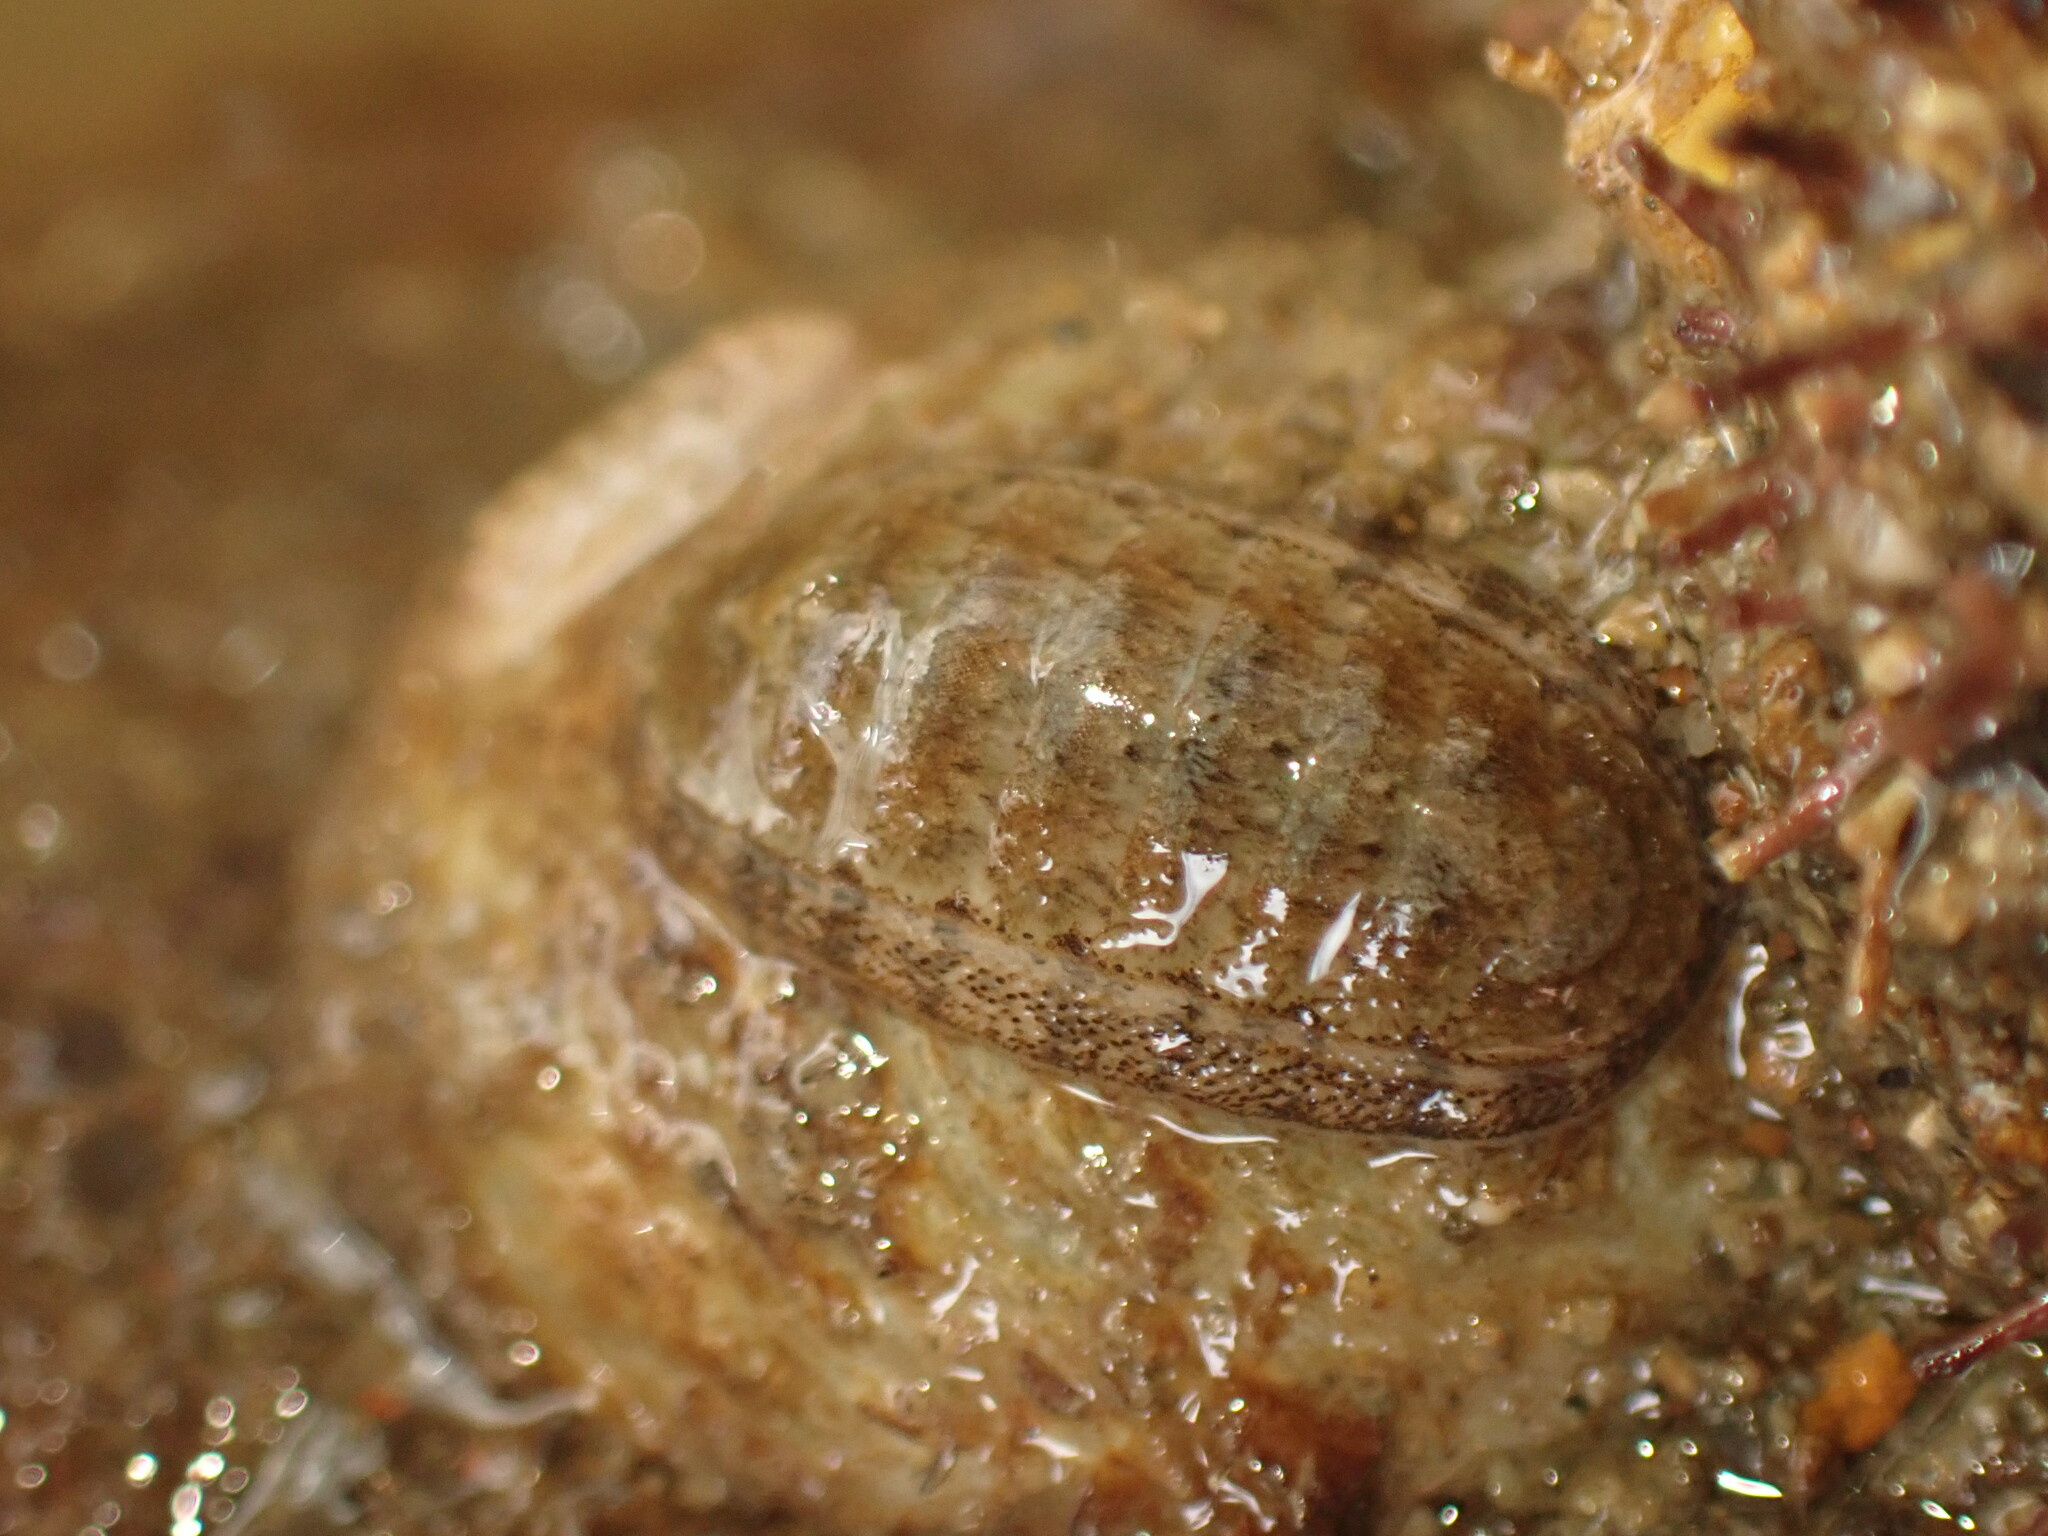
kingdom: Animalia
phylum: Mollusca
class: Polyplacophora
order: Chitonida
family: Ischnochitonidae
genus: Ischnochiton
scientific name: Ischnochiton maorianus
